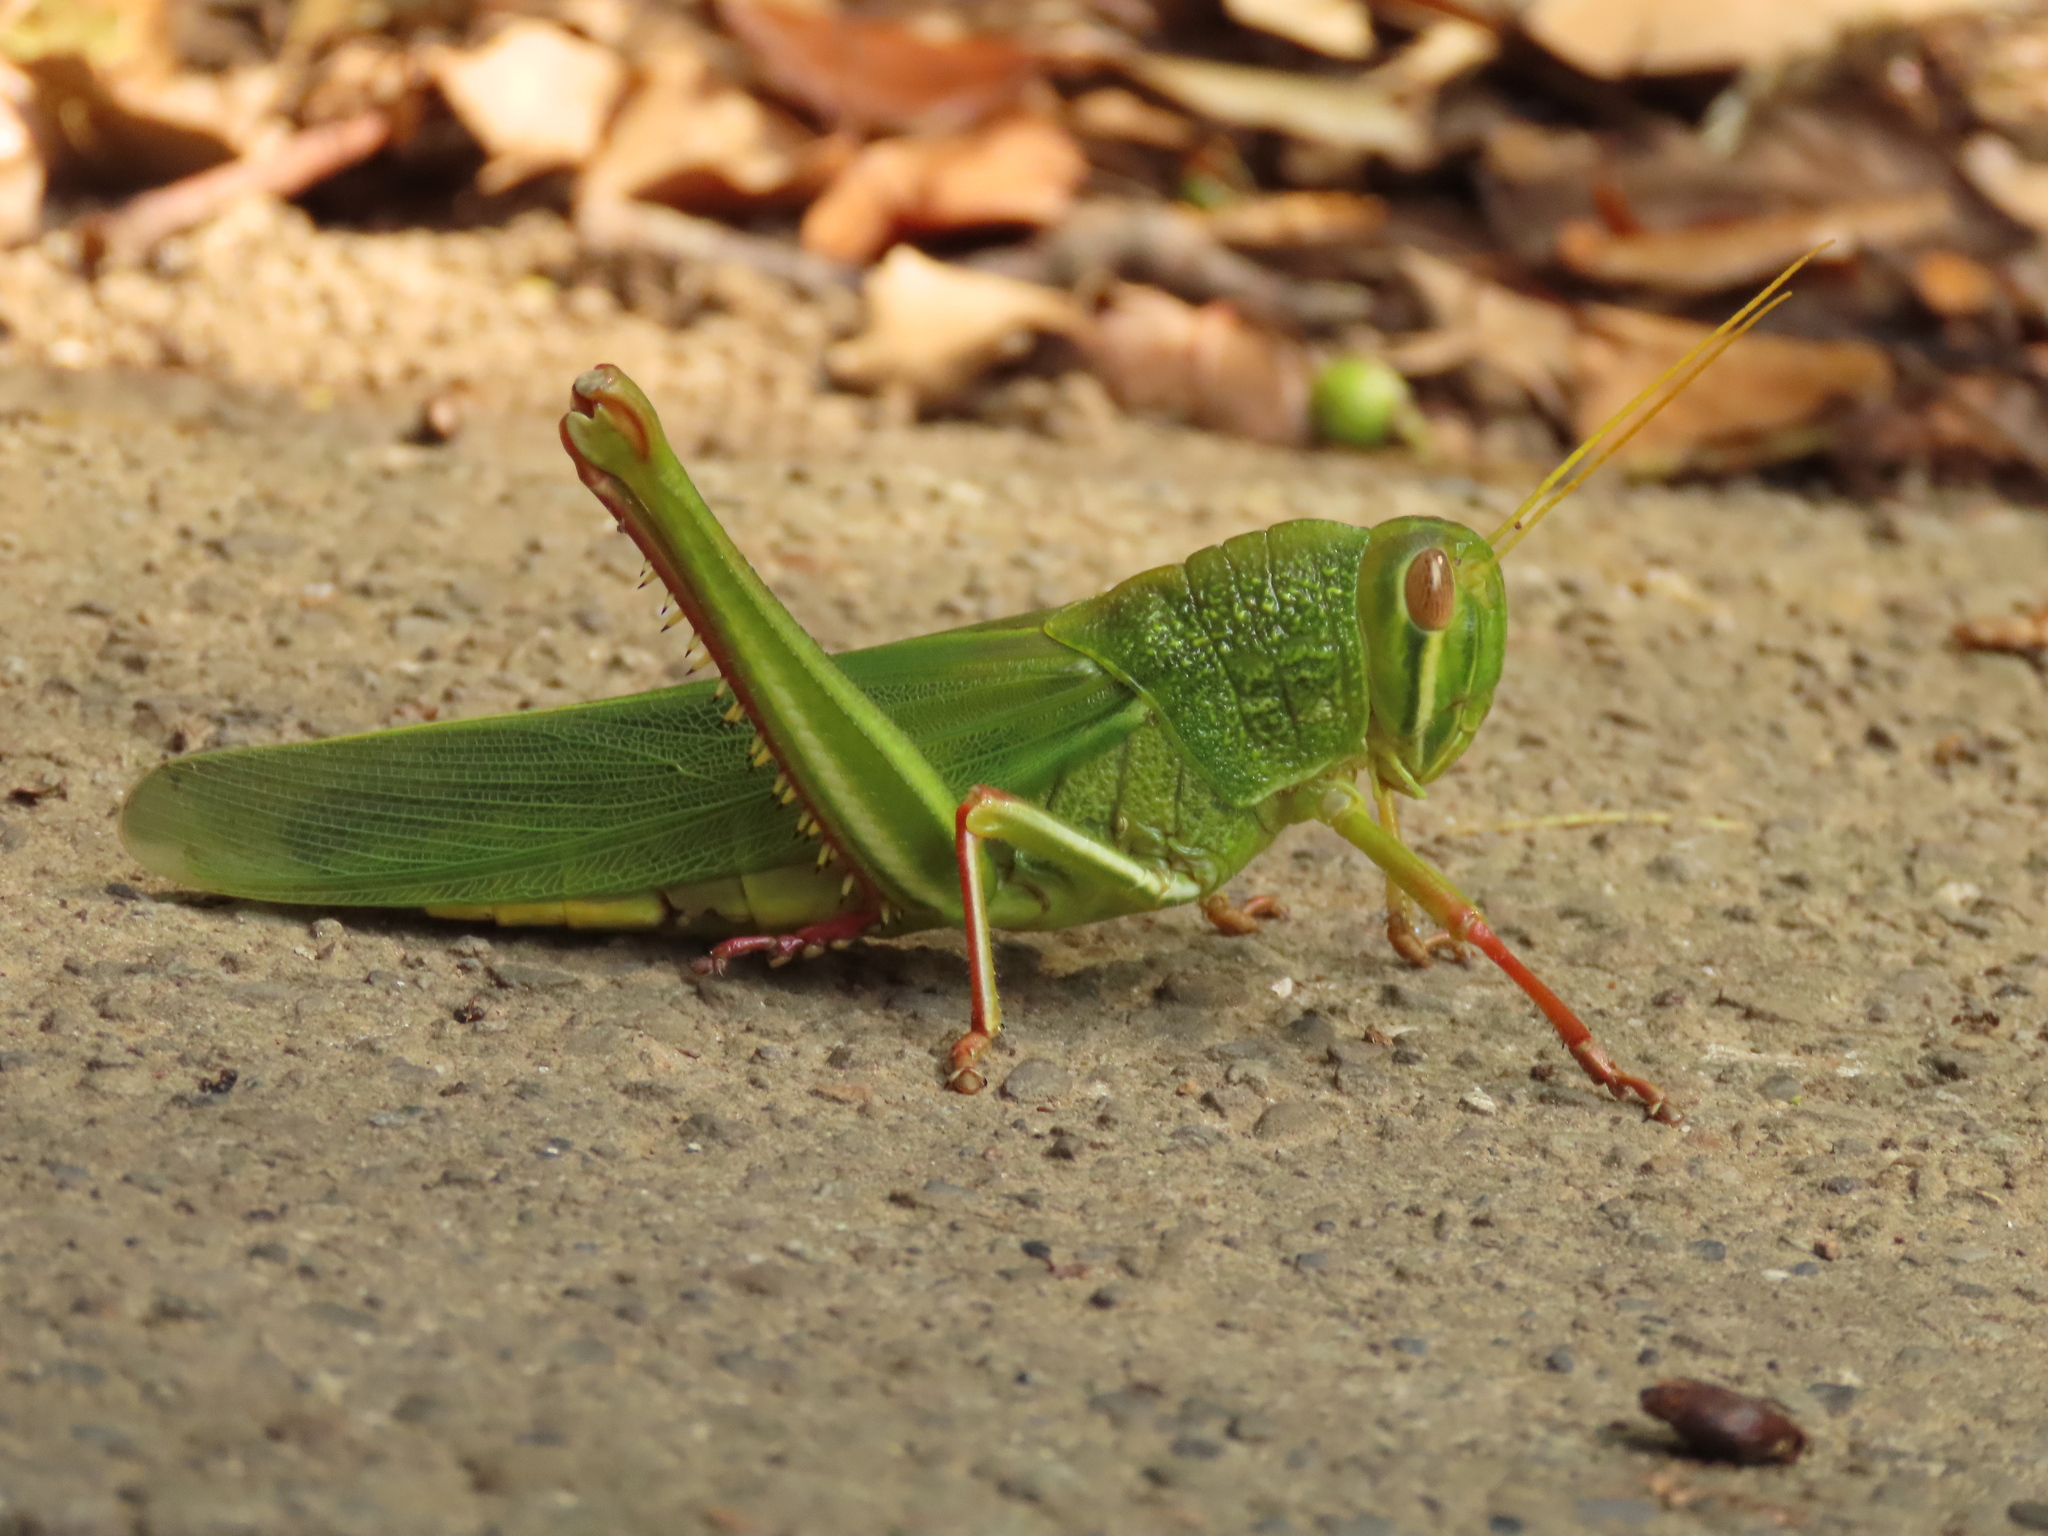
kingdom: Animalia
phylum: Arthropoda
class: Insecta
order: Orthoptera
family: Acrididae
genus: Chondracris
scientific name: Chondracris rosea
